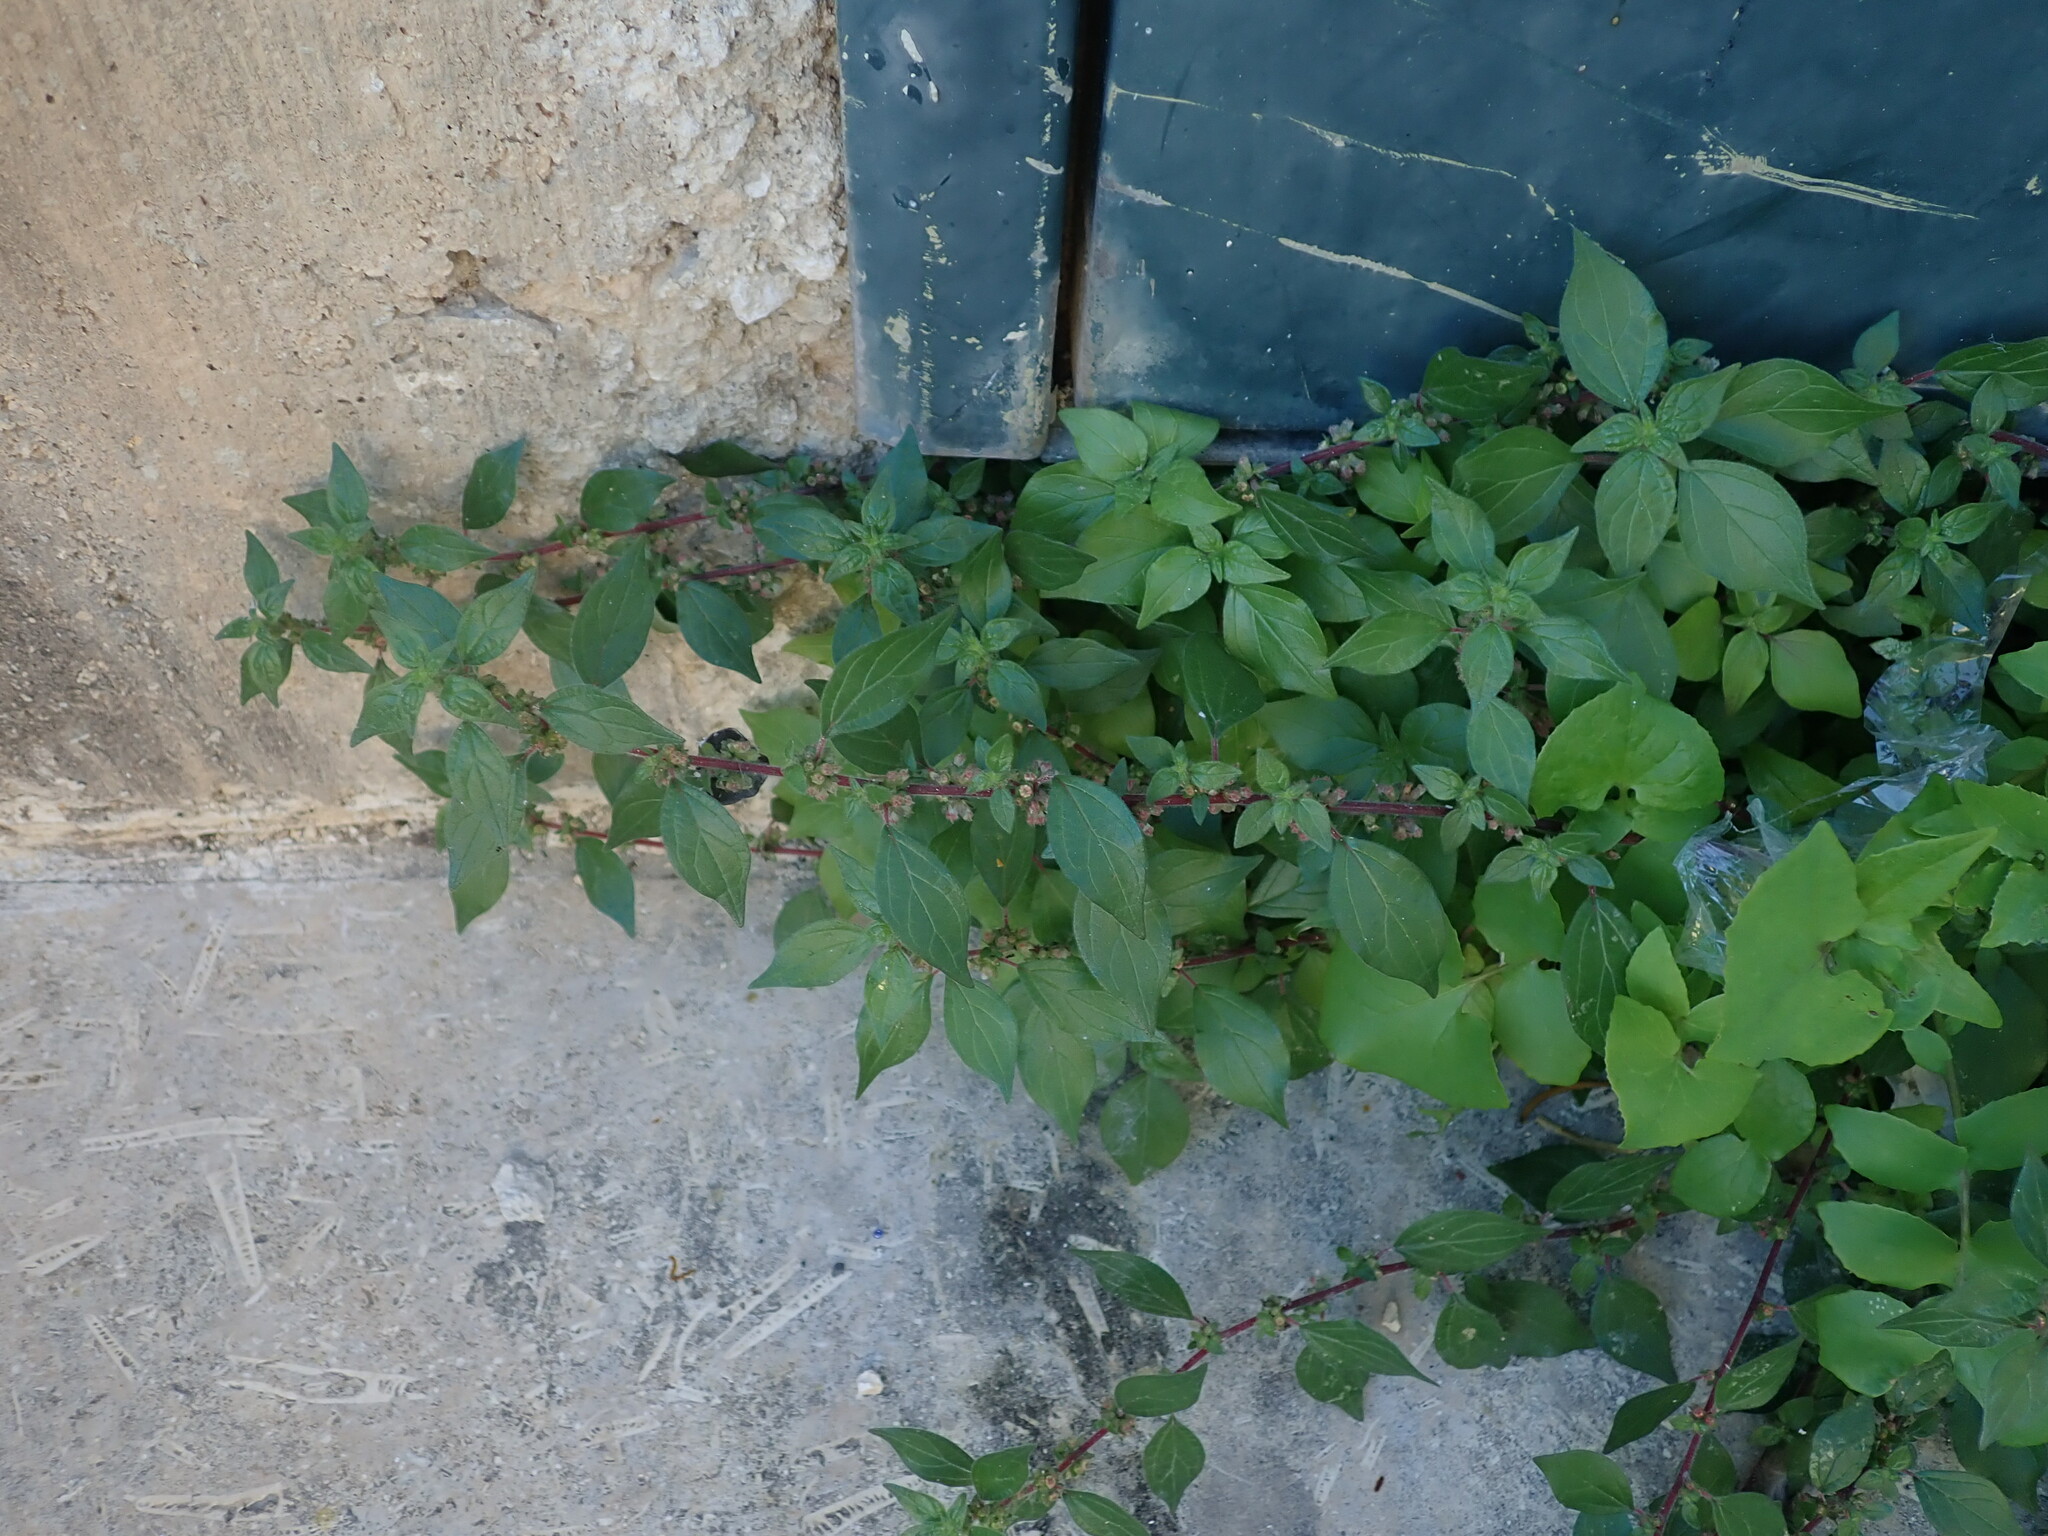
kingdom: Plantae
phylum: Tracheophyta
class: Magnoliopsida
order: Rosales
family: Urticaceae
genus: Parietaria
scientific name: Parietaria judaica
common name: Pellitory-of-the-wall
